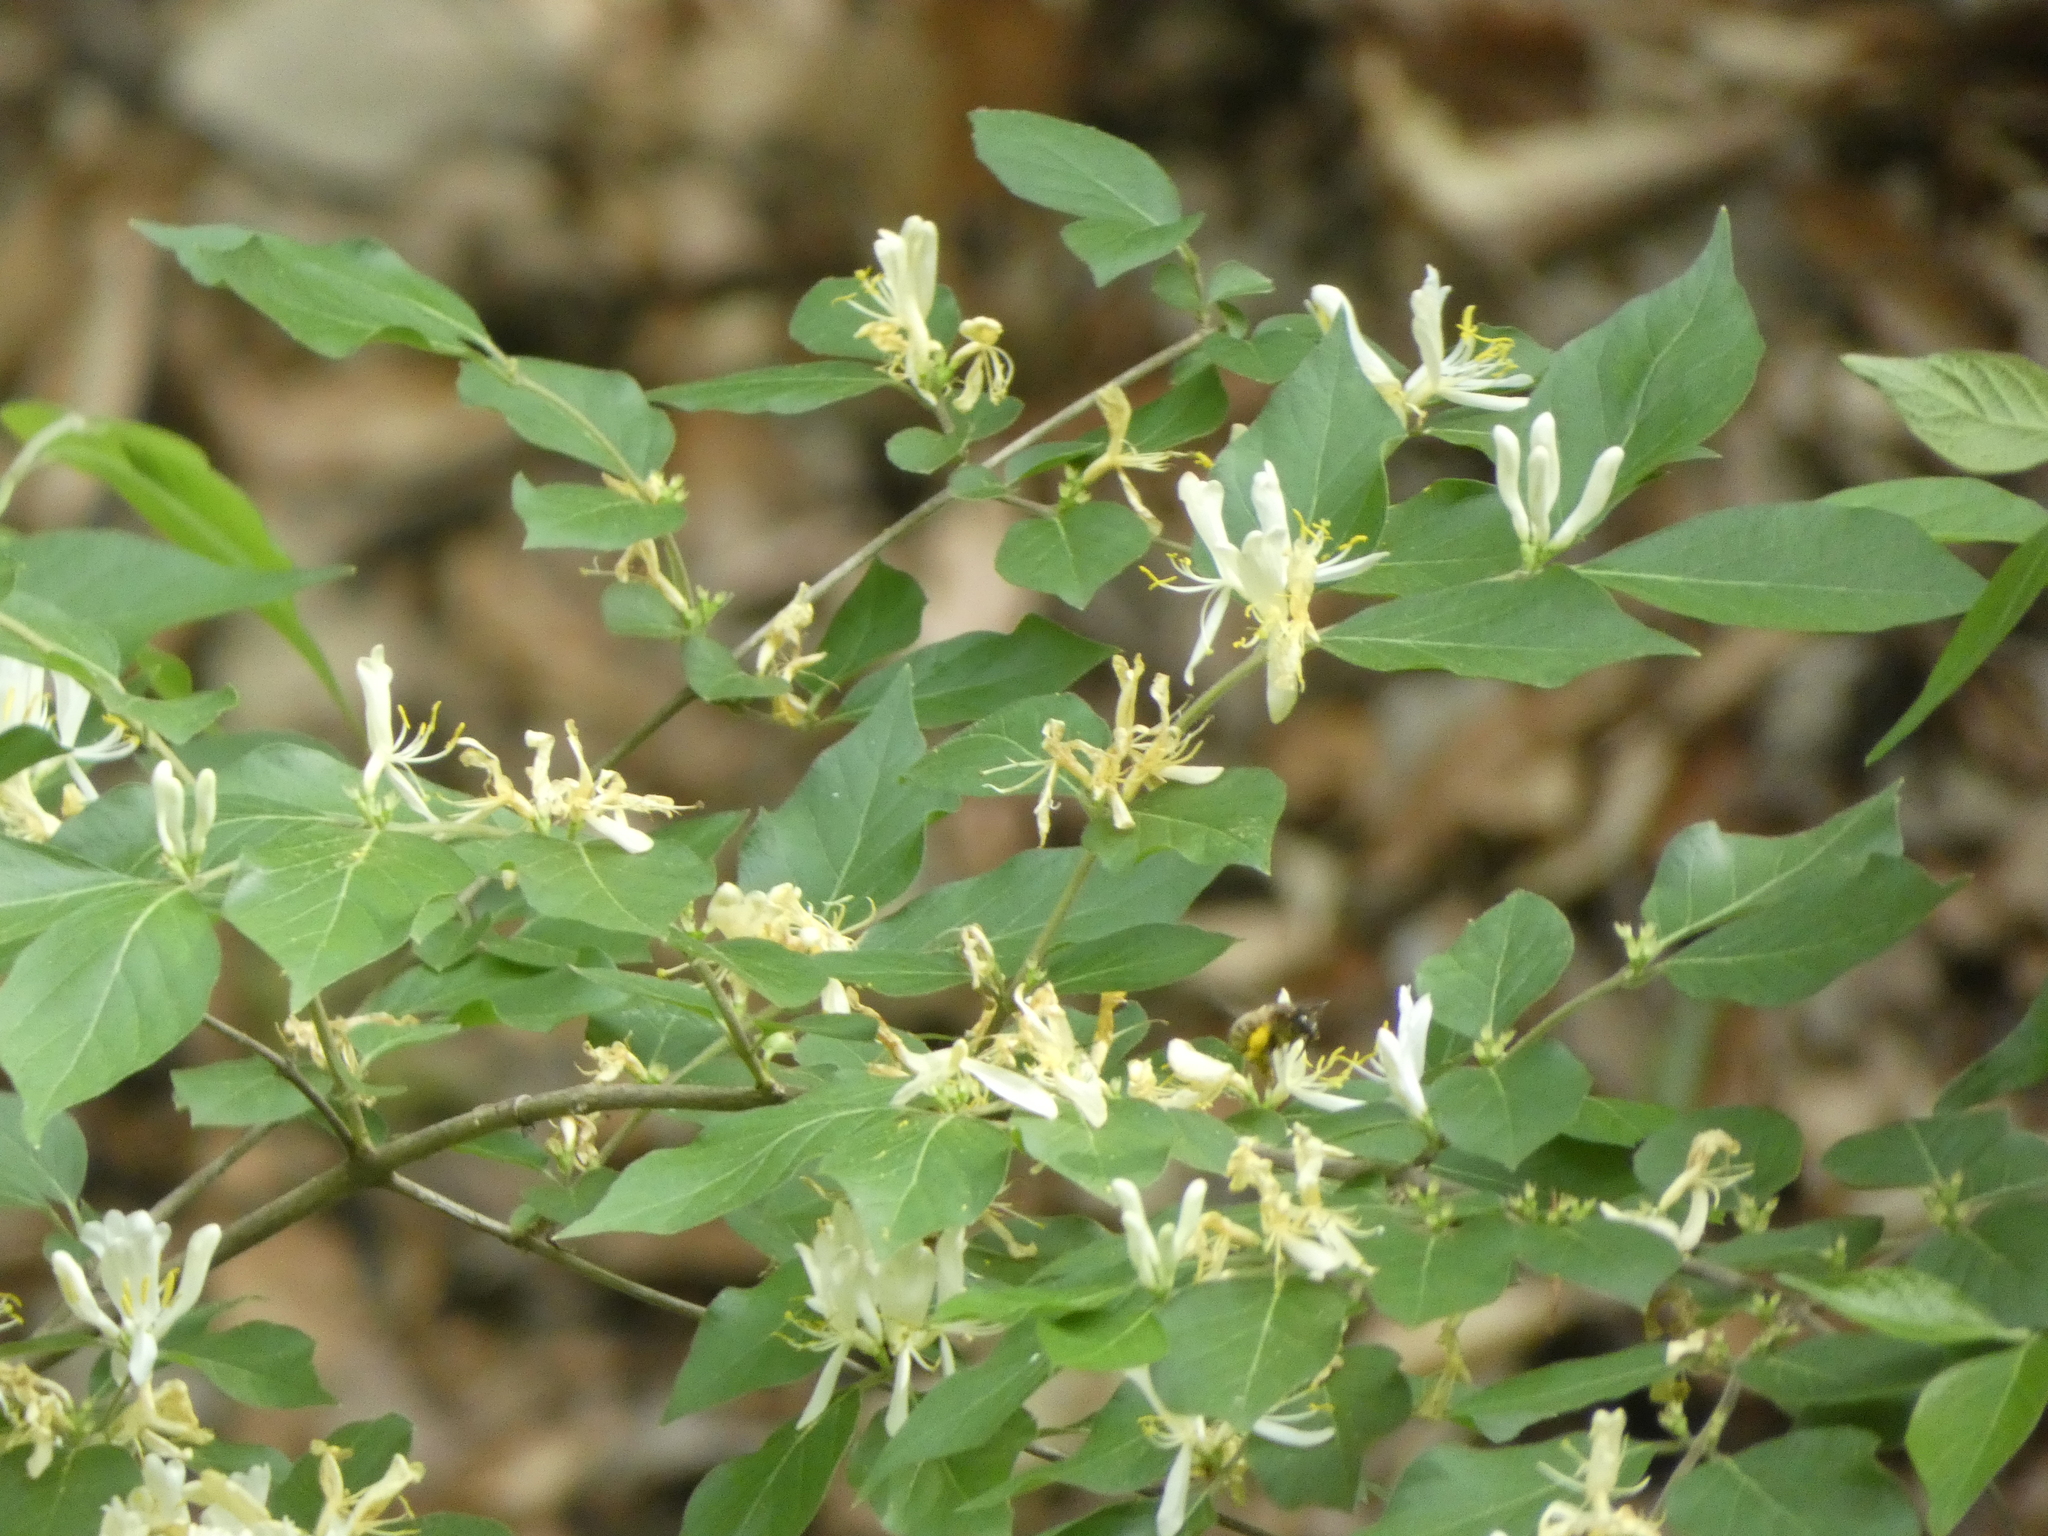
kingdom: Plantae
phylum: Tracheophyta
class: Magnoliopsida
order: Dipsacales
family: Caprifoliaceae
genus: Lonicera
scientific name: Lonicera maackii
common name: Amur honeysuckle
